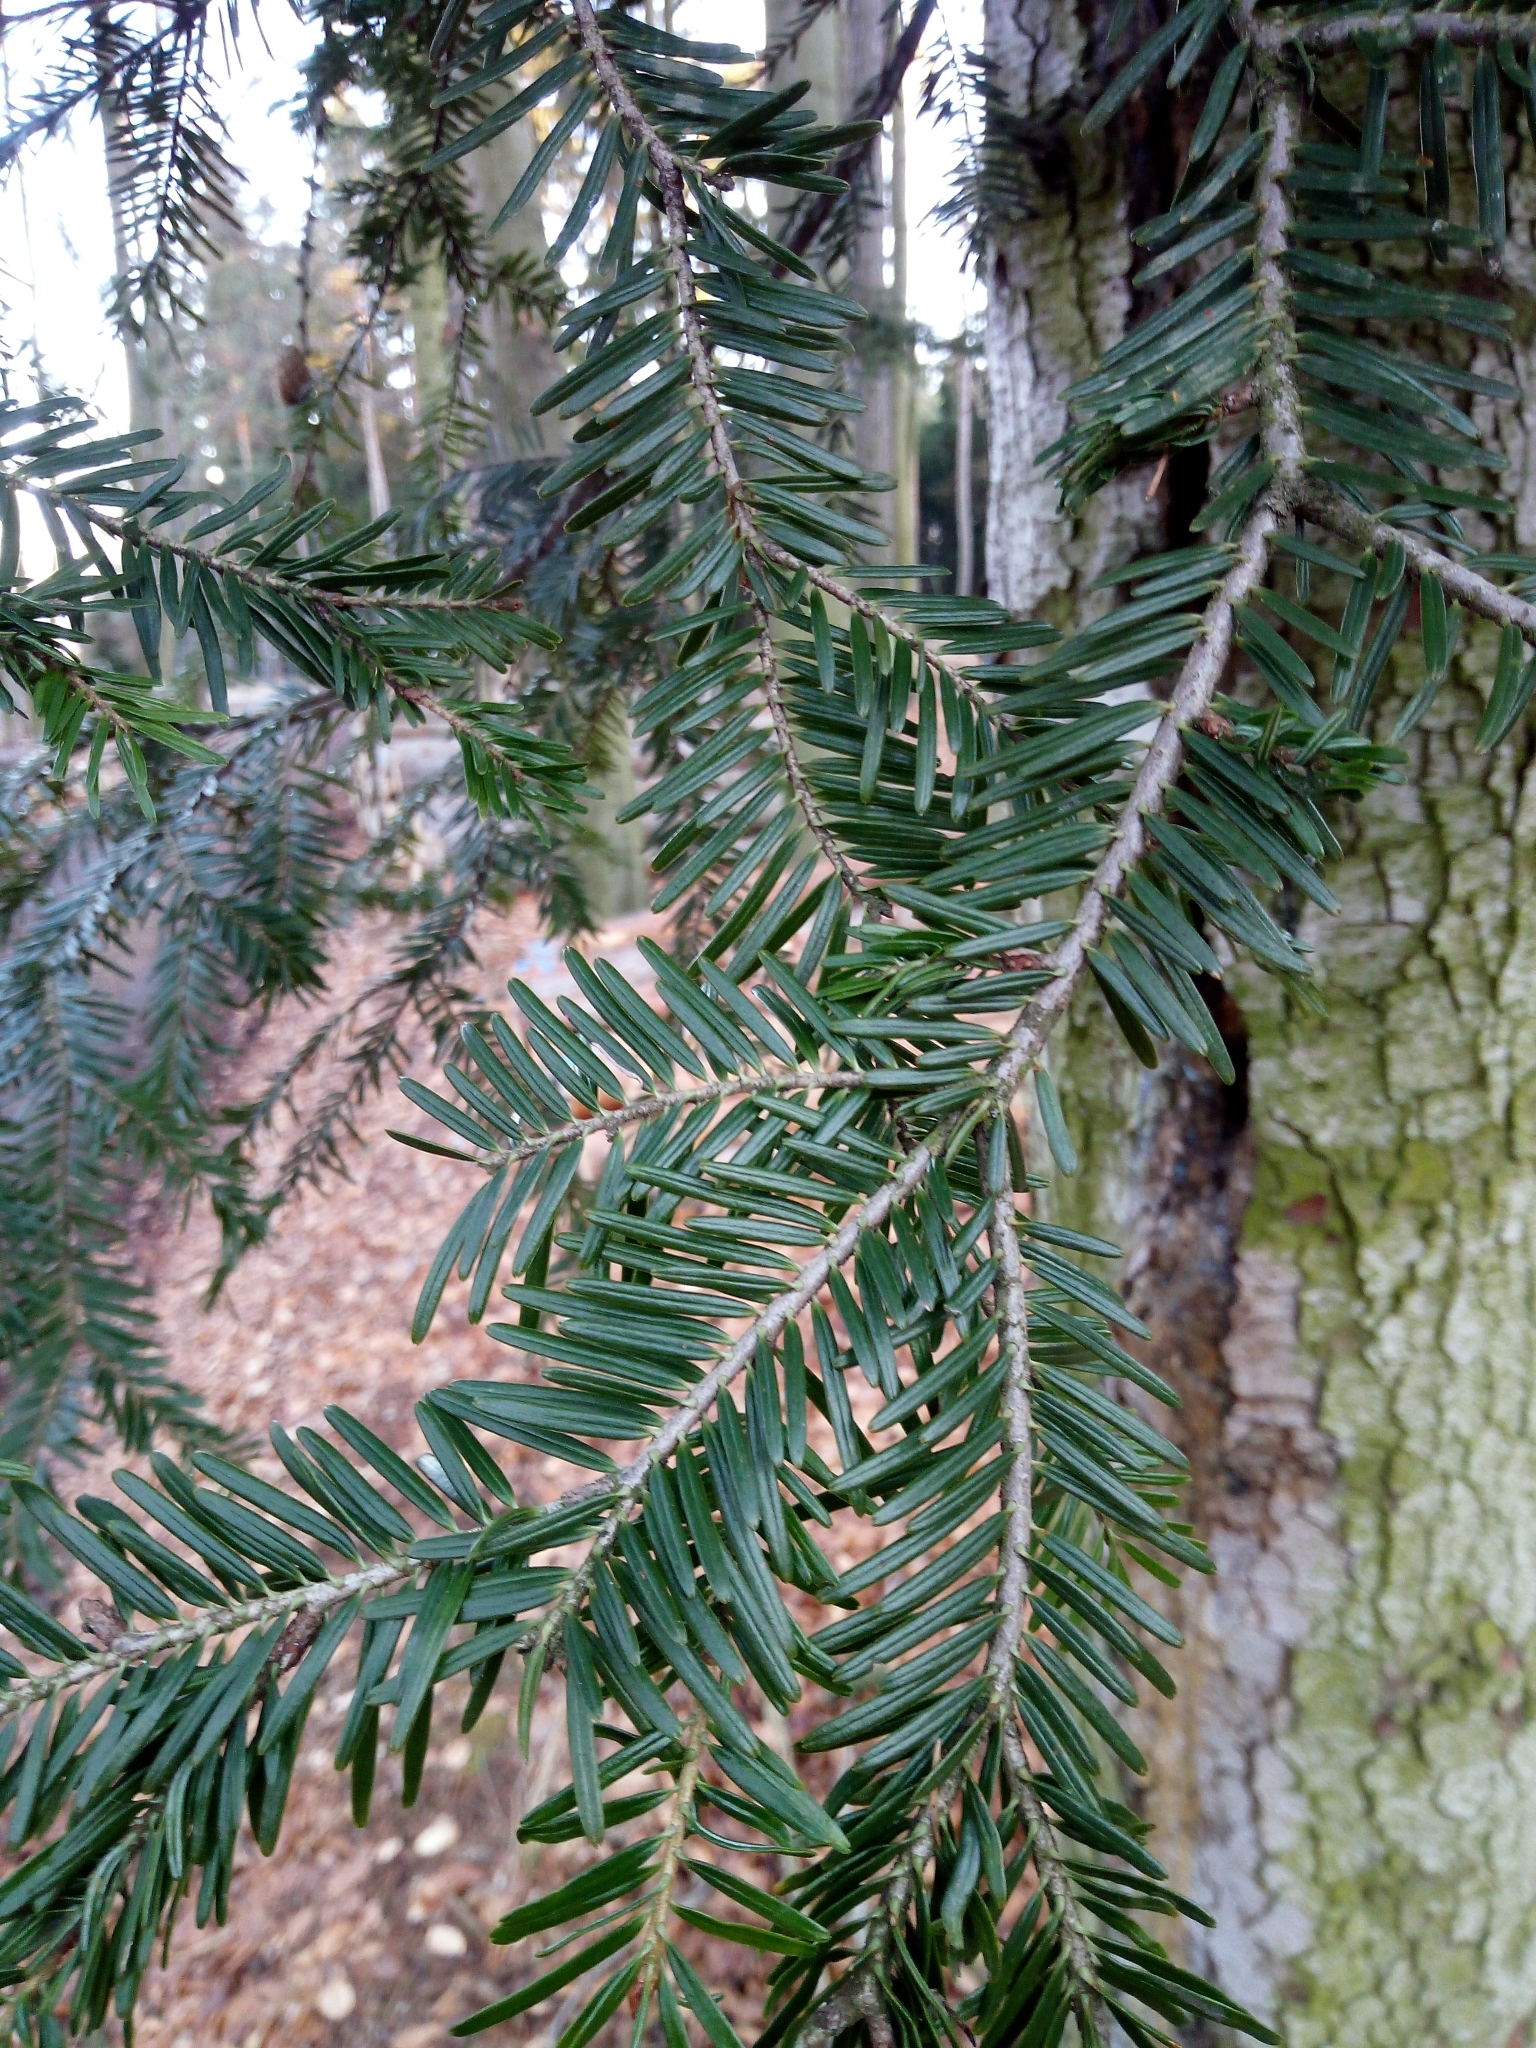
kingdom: Plantae
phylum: Tracheophyta
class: Pinopsida
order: Pinales
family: Pinaceae
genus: Abies
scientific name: Abies alba
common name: Silver fir
